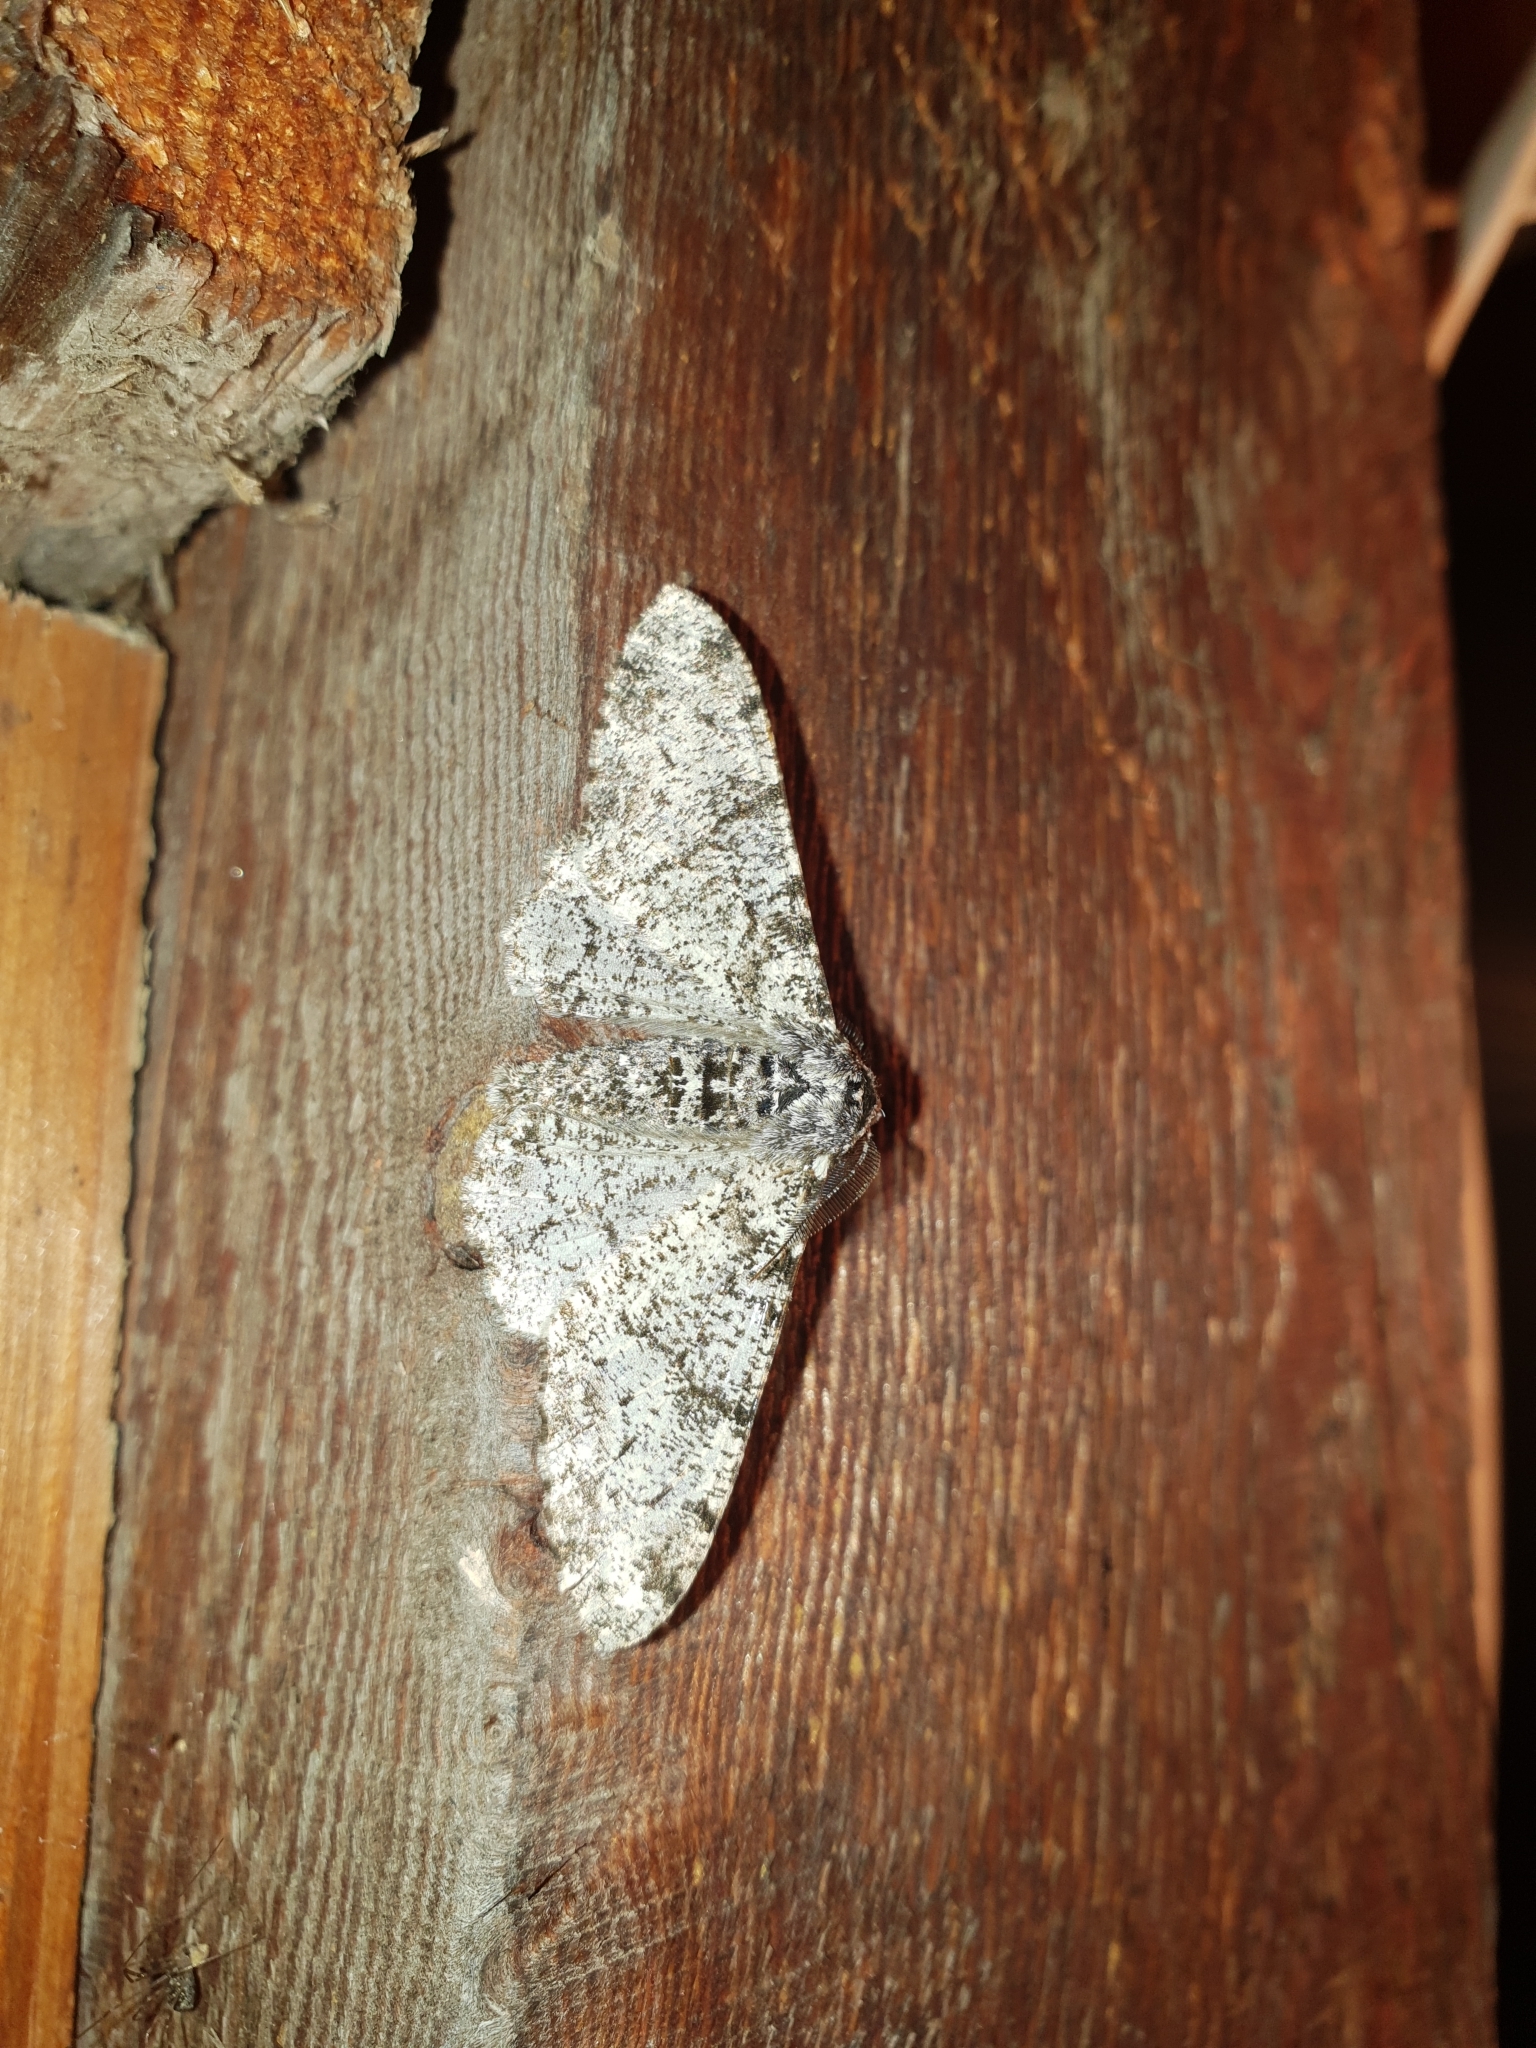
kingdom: Animalia
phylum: Arthropoda
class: Insecta
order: Lepidoptera
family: Geometridae
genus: Biston
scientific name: Biston betularia
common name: Peppered moth
